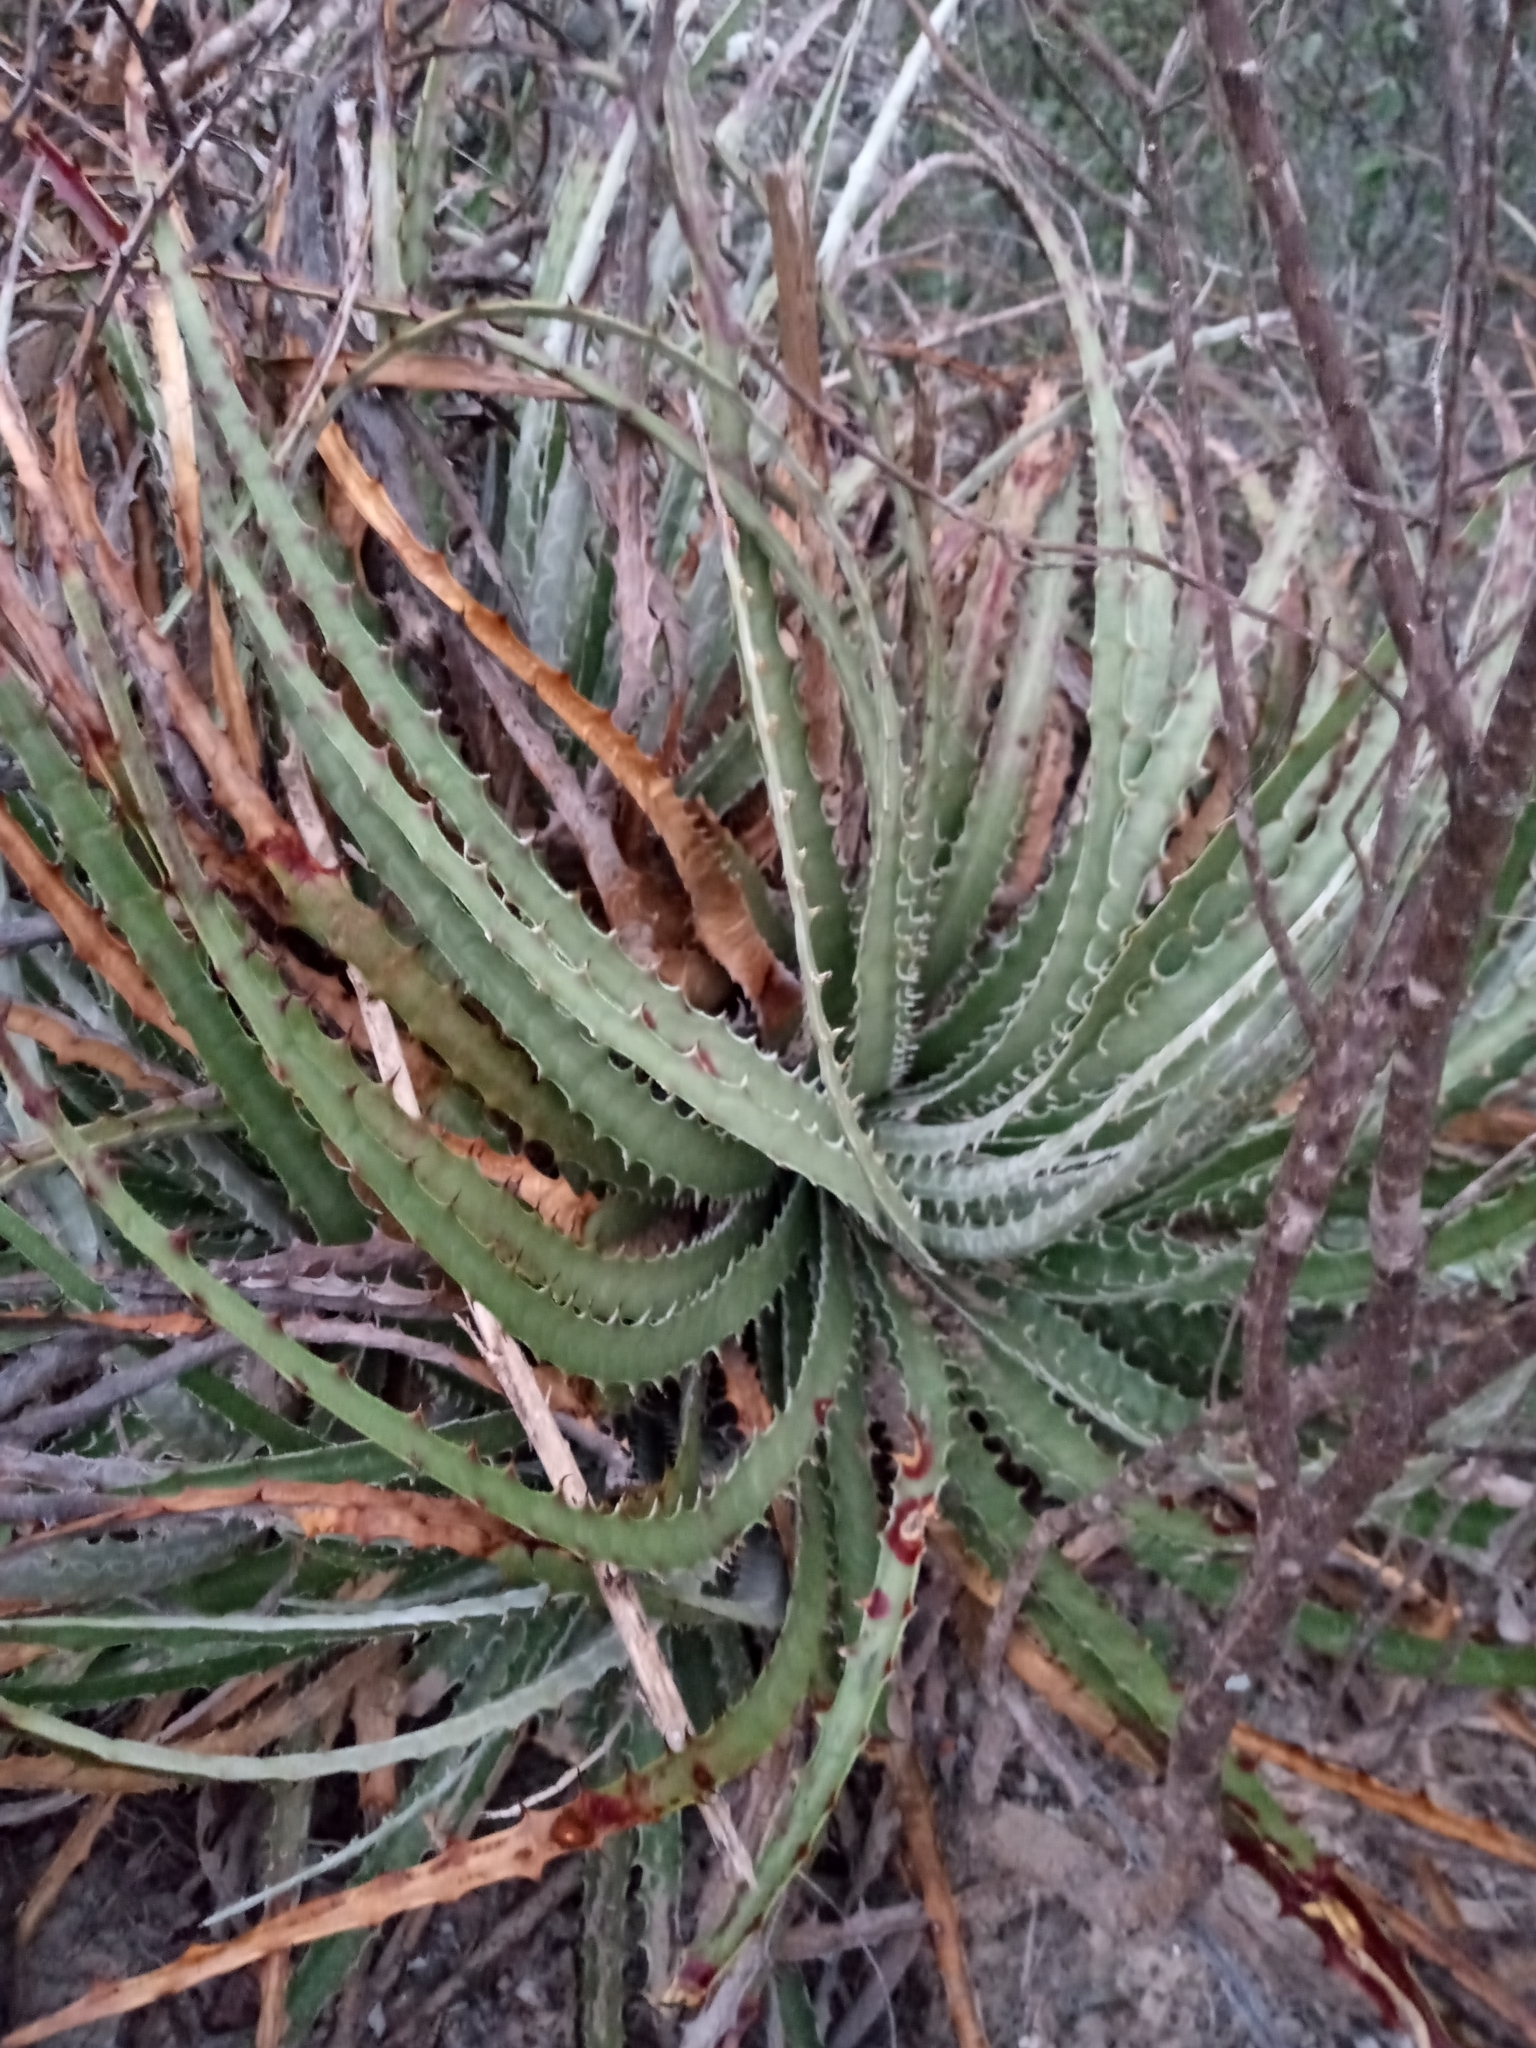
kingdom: Plantae
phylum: Tracheophyta
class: Liliopsida
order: Poales
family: Bromeliaceae
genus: Hechtia
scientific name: Hechtia glomerata
